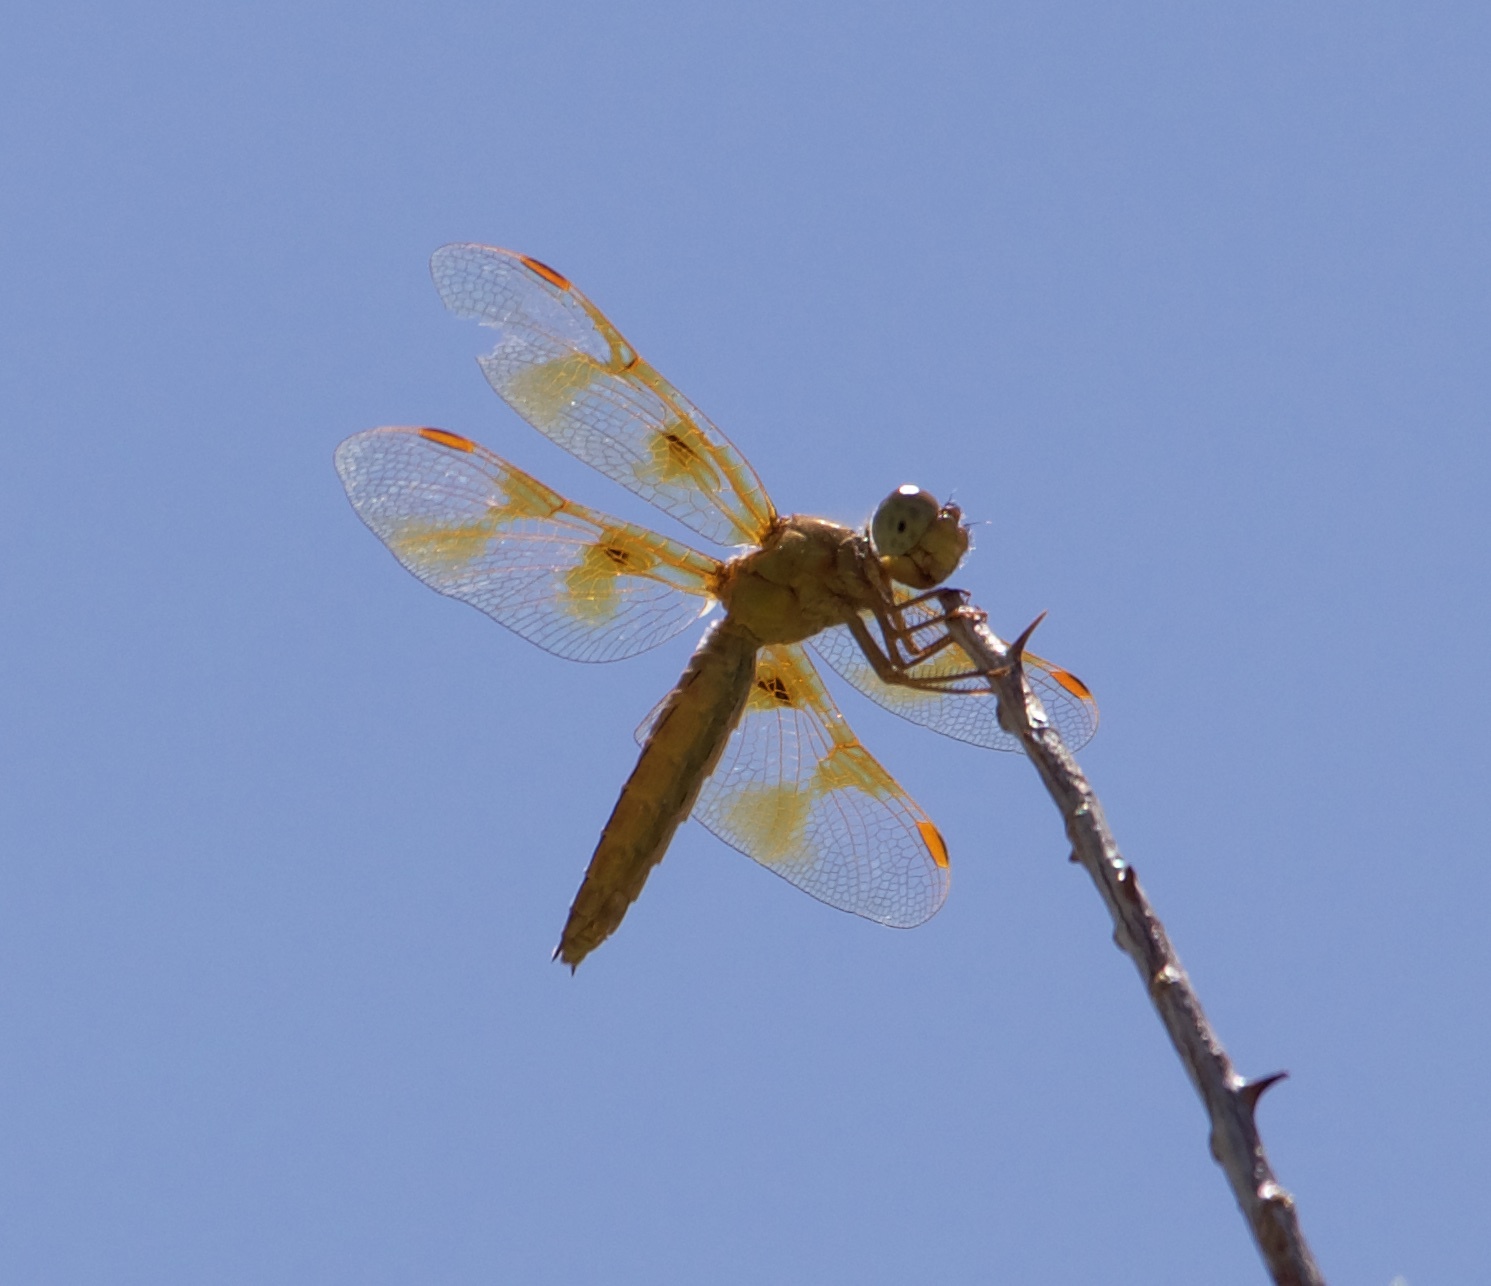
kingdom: Animalia
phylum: Arthropoda
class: Insecta
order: Odonata
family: Libellulidae
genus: Perithemis
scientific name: Perithemis intensa
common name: Mexican amberwing
